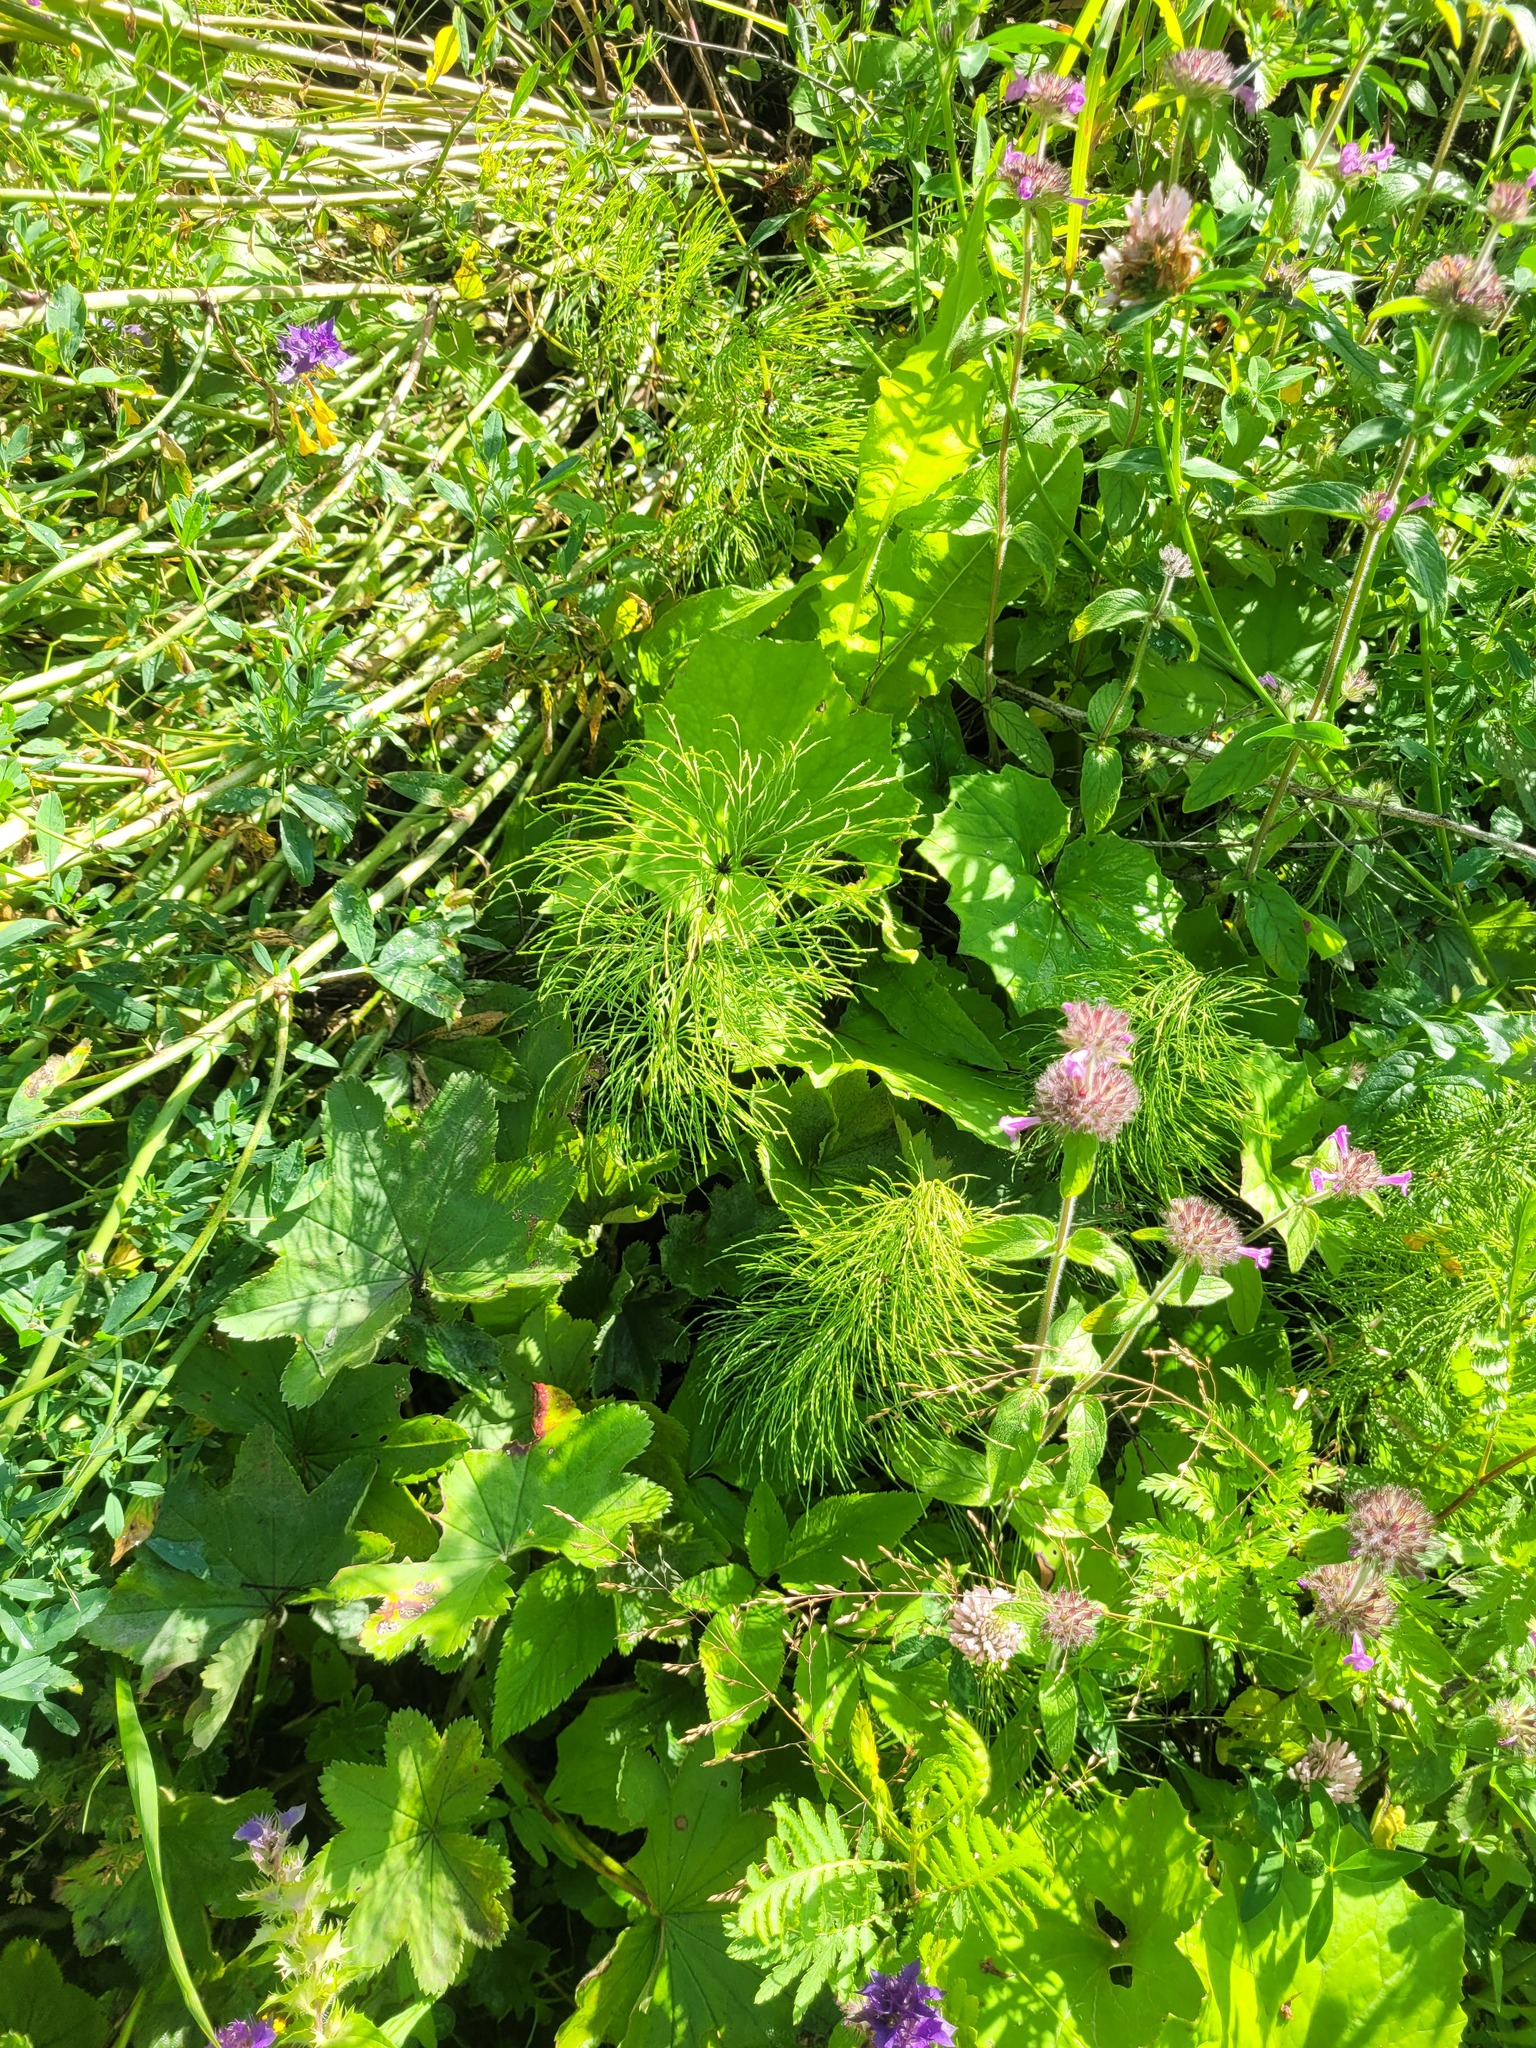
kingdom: Plantae
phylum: Tracheophyta
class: Polypodiopsida
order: Equisetales
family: Equisetaceae
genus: Equisetum
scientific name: Equisetum sylvaticum
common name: Wood horsetail
